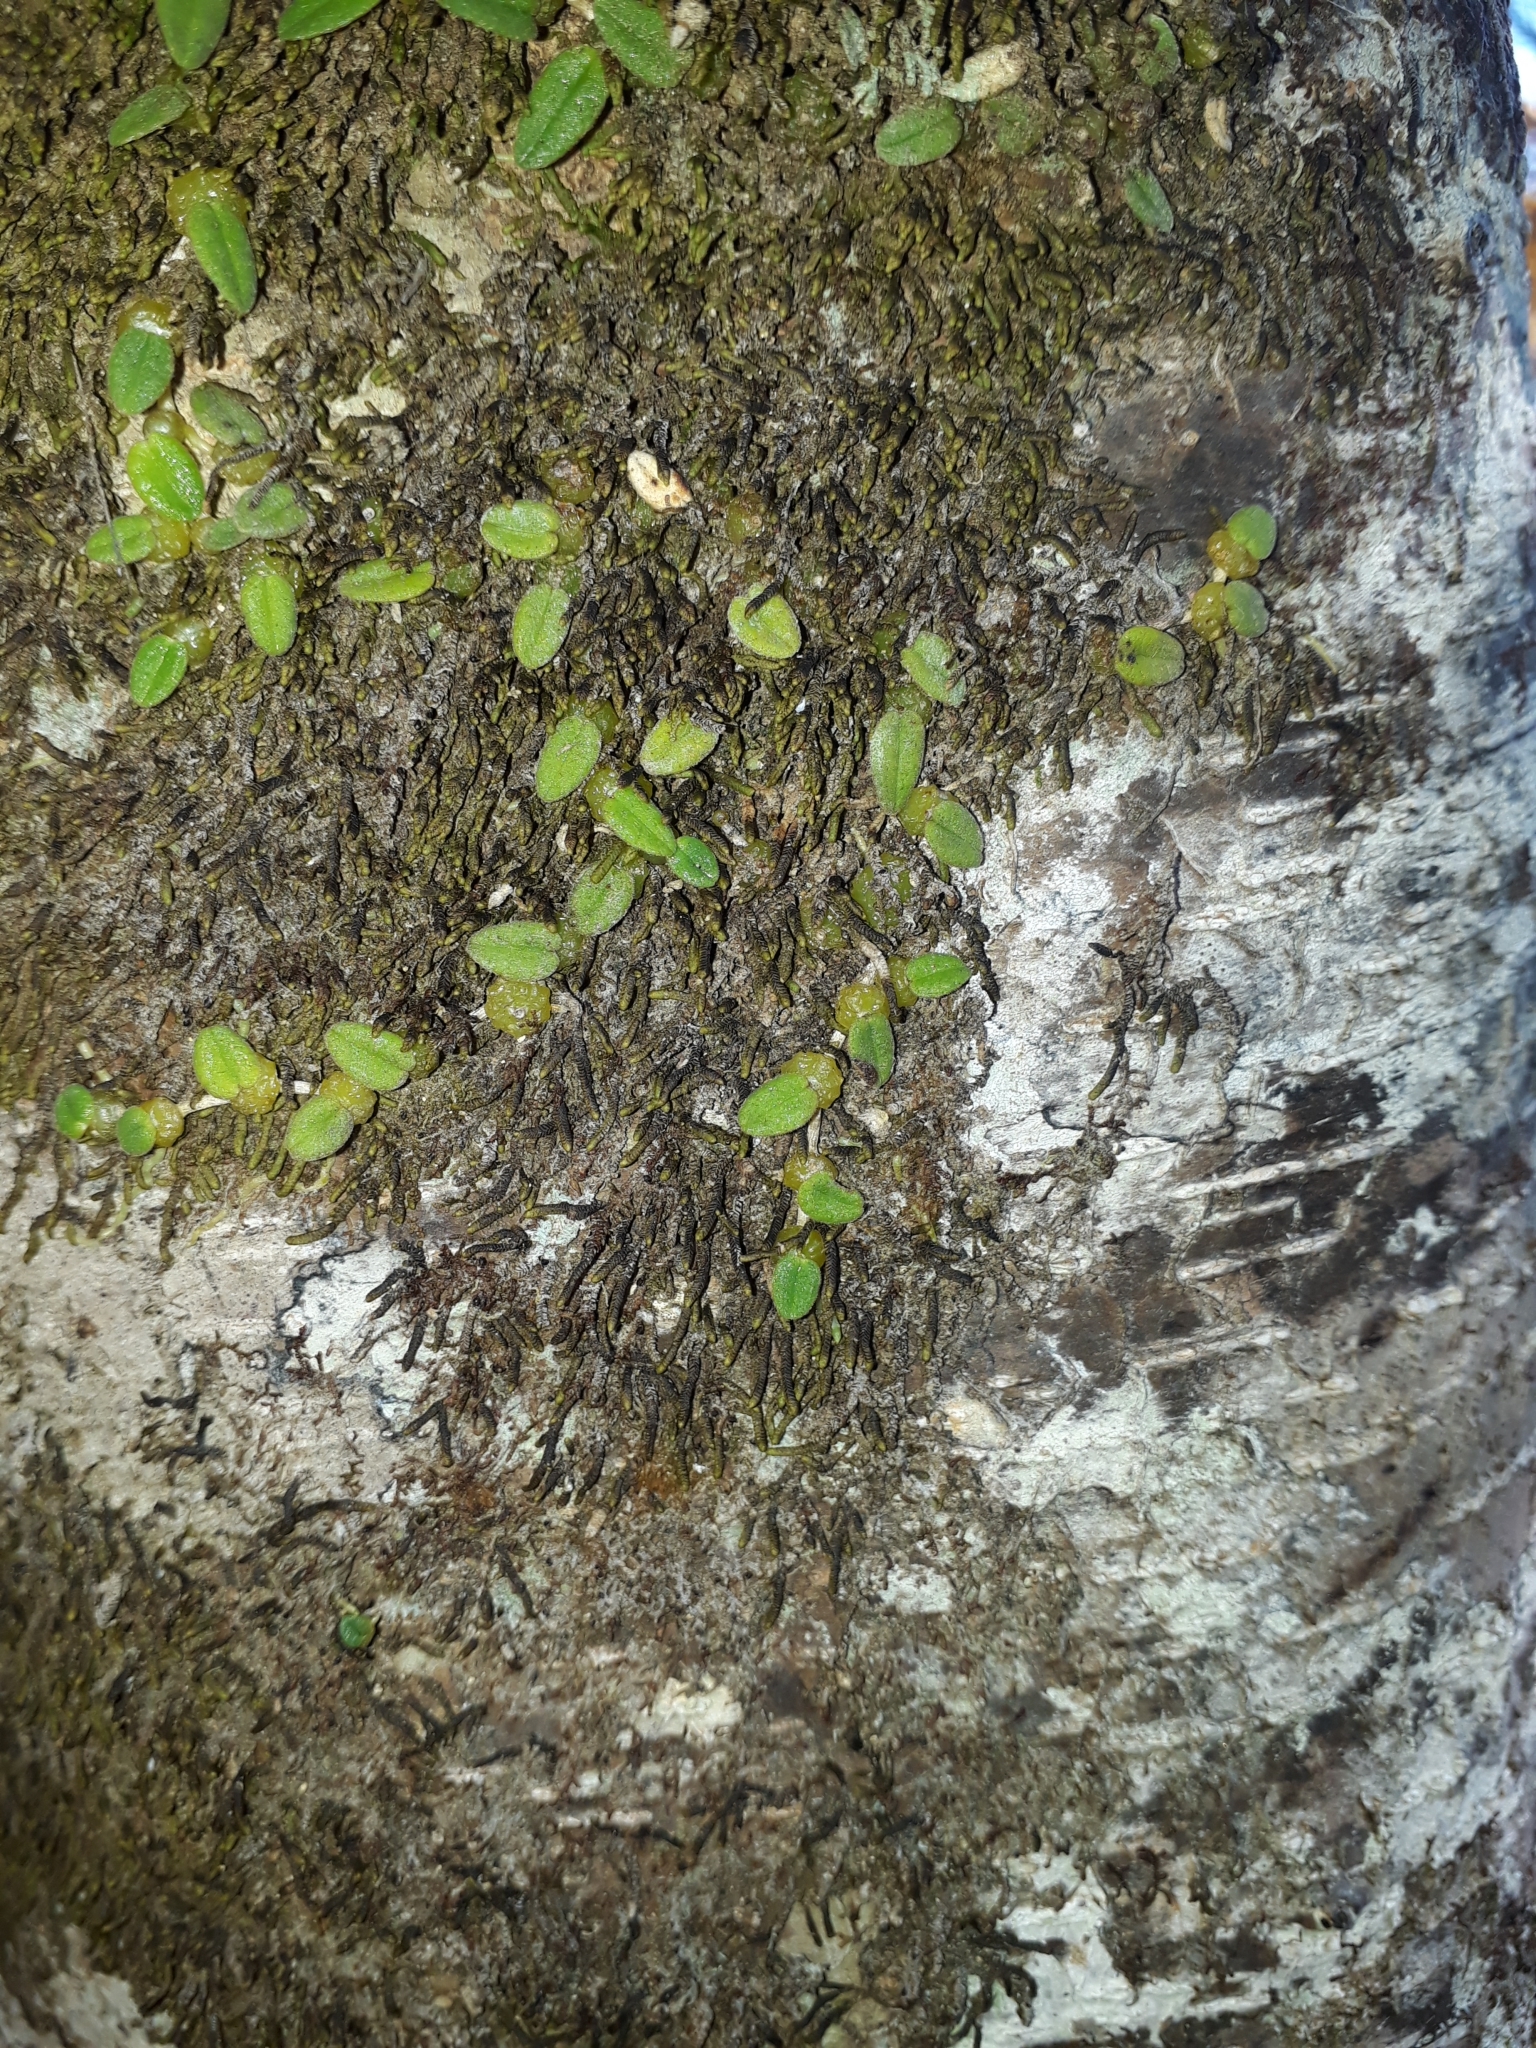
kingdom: Plantae
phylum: Tracheophyta
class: Liliopsida
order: Asparagales
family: Orchidaceae
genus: Bulbophyllum
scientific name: Bulbophyllum pygmaeum
